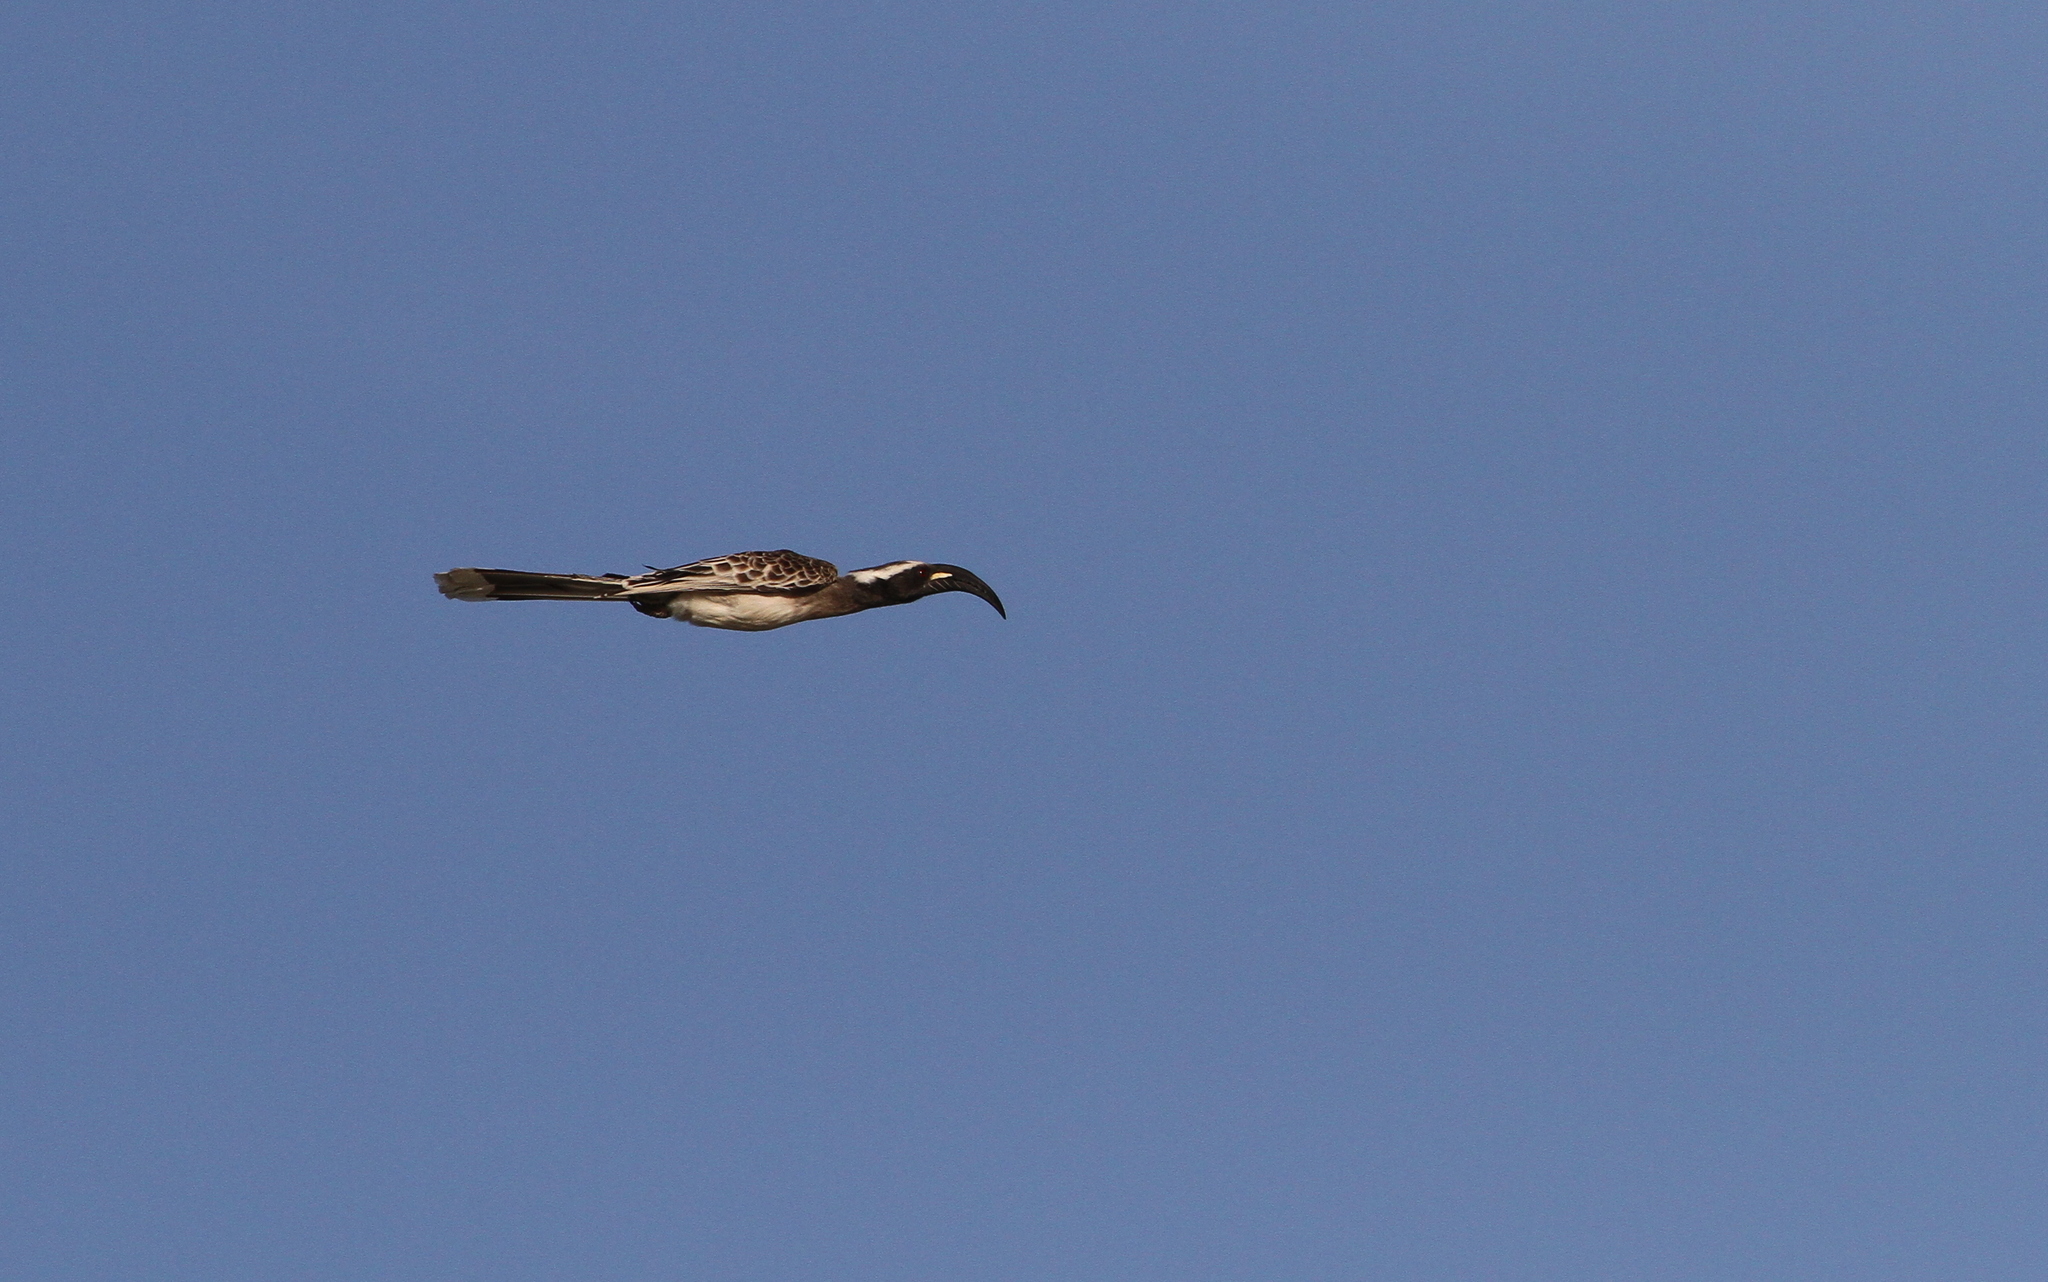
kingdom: Animalia
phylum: Chordata
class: Aves
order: Bucerotiformes
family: Bucerotidae
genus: Lophoceros
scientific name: Lophoceros nasutus
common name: African grey hornbill
